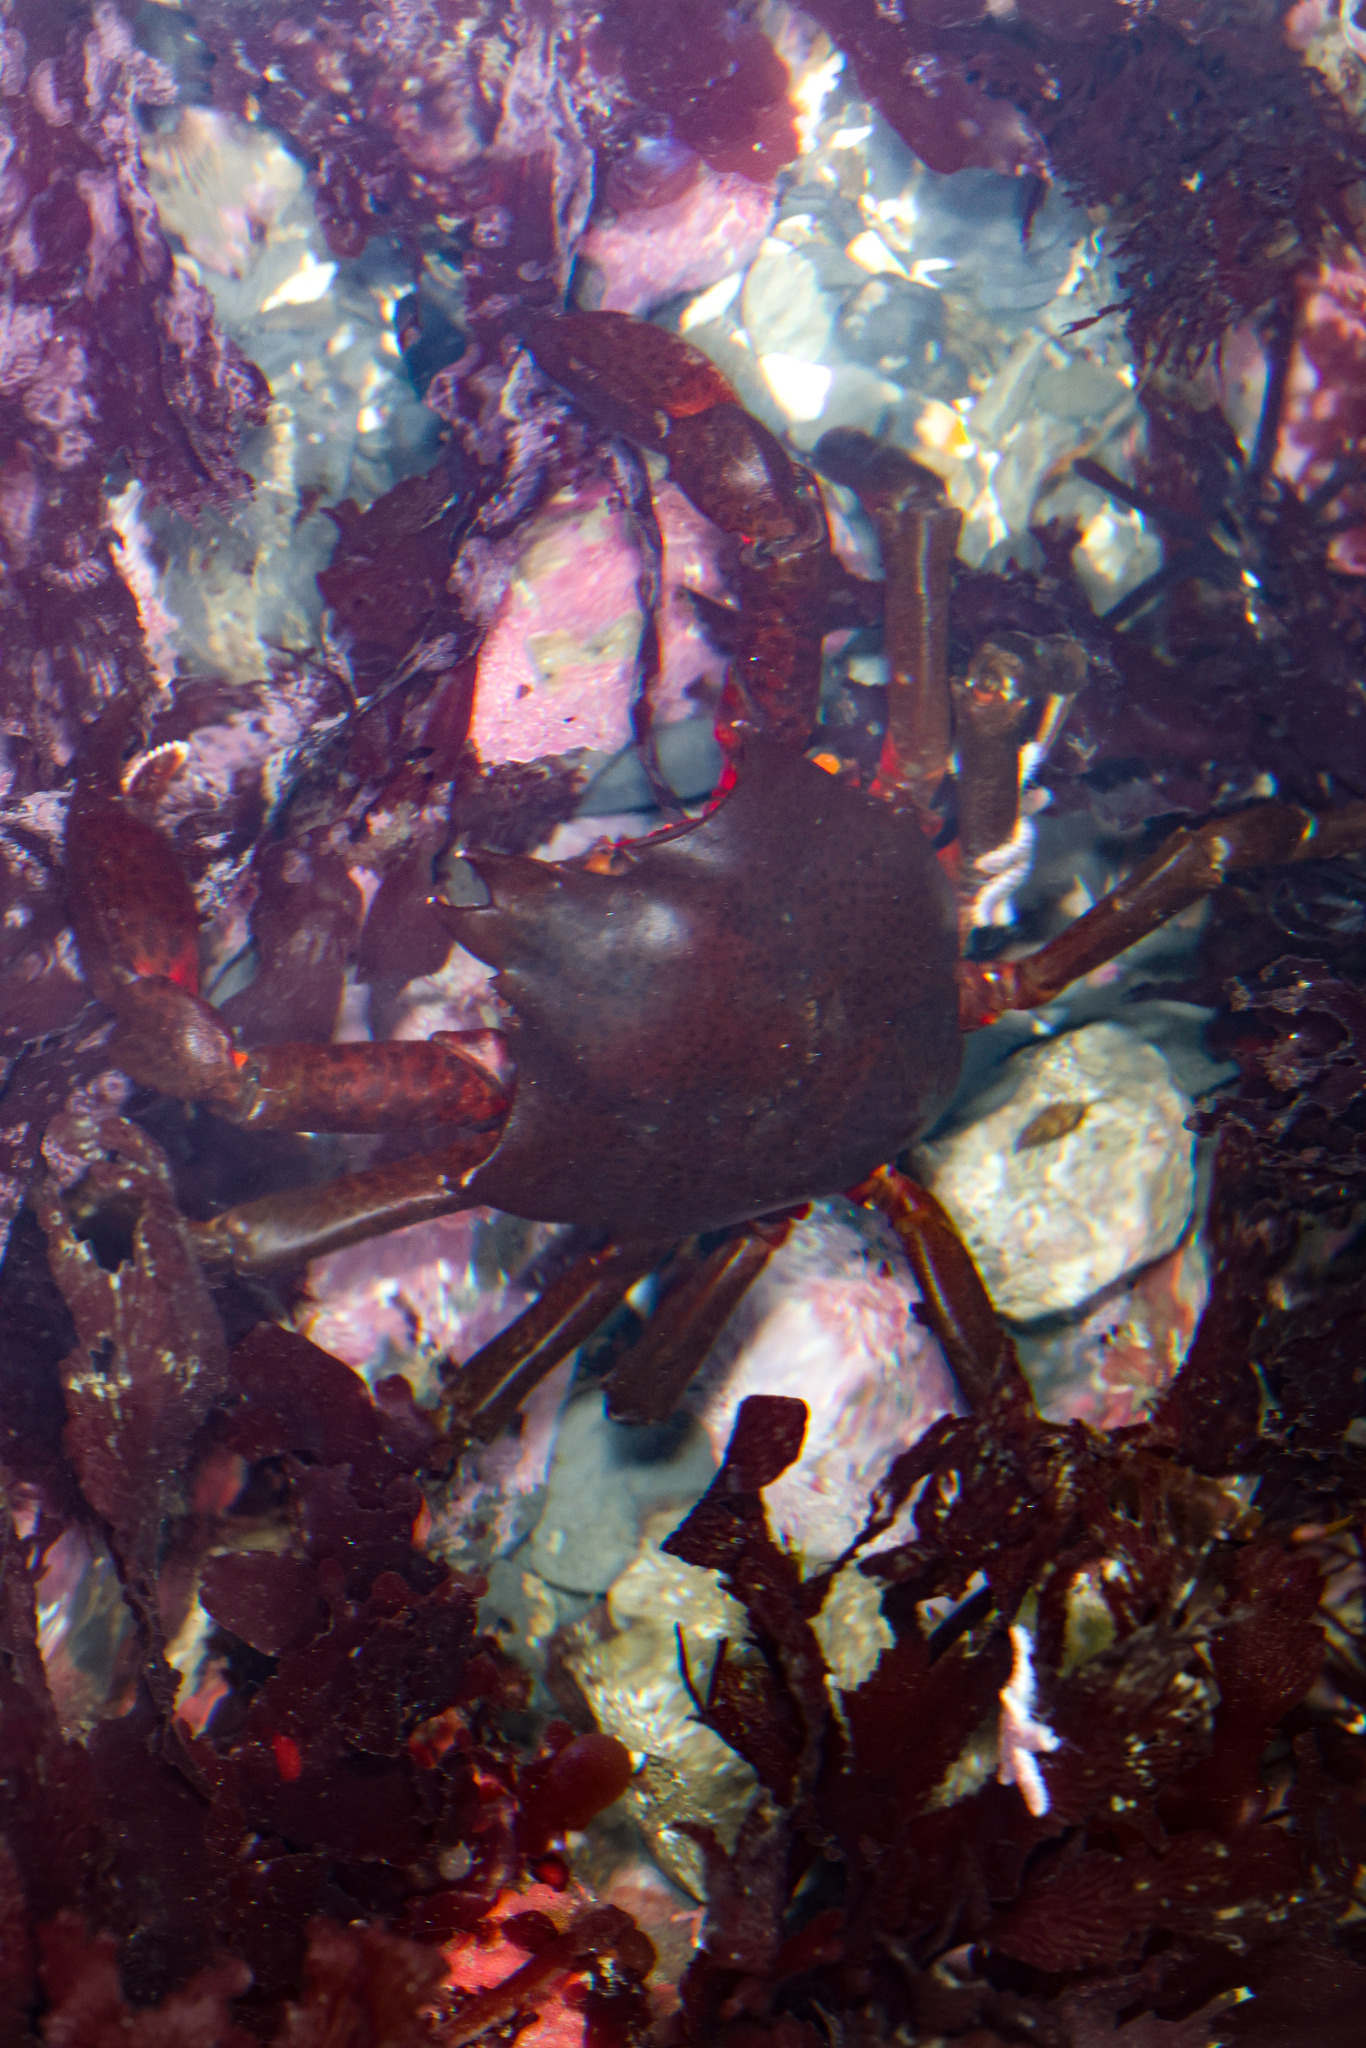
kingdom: Animalia
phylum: Arthropoda
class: Malacostraca
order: Decapoda
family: Epialtidae
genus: Pugettia
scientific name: Pugettia producta
